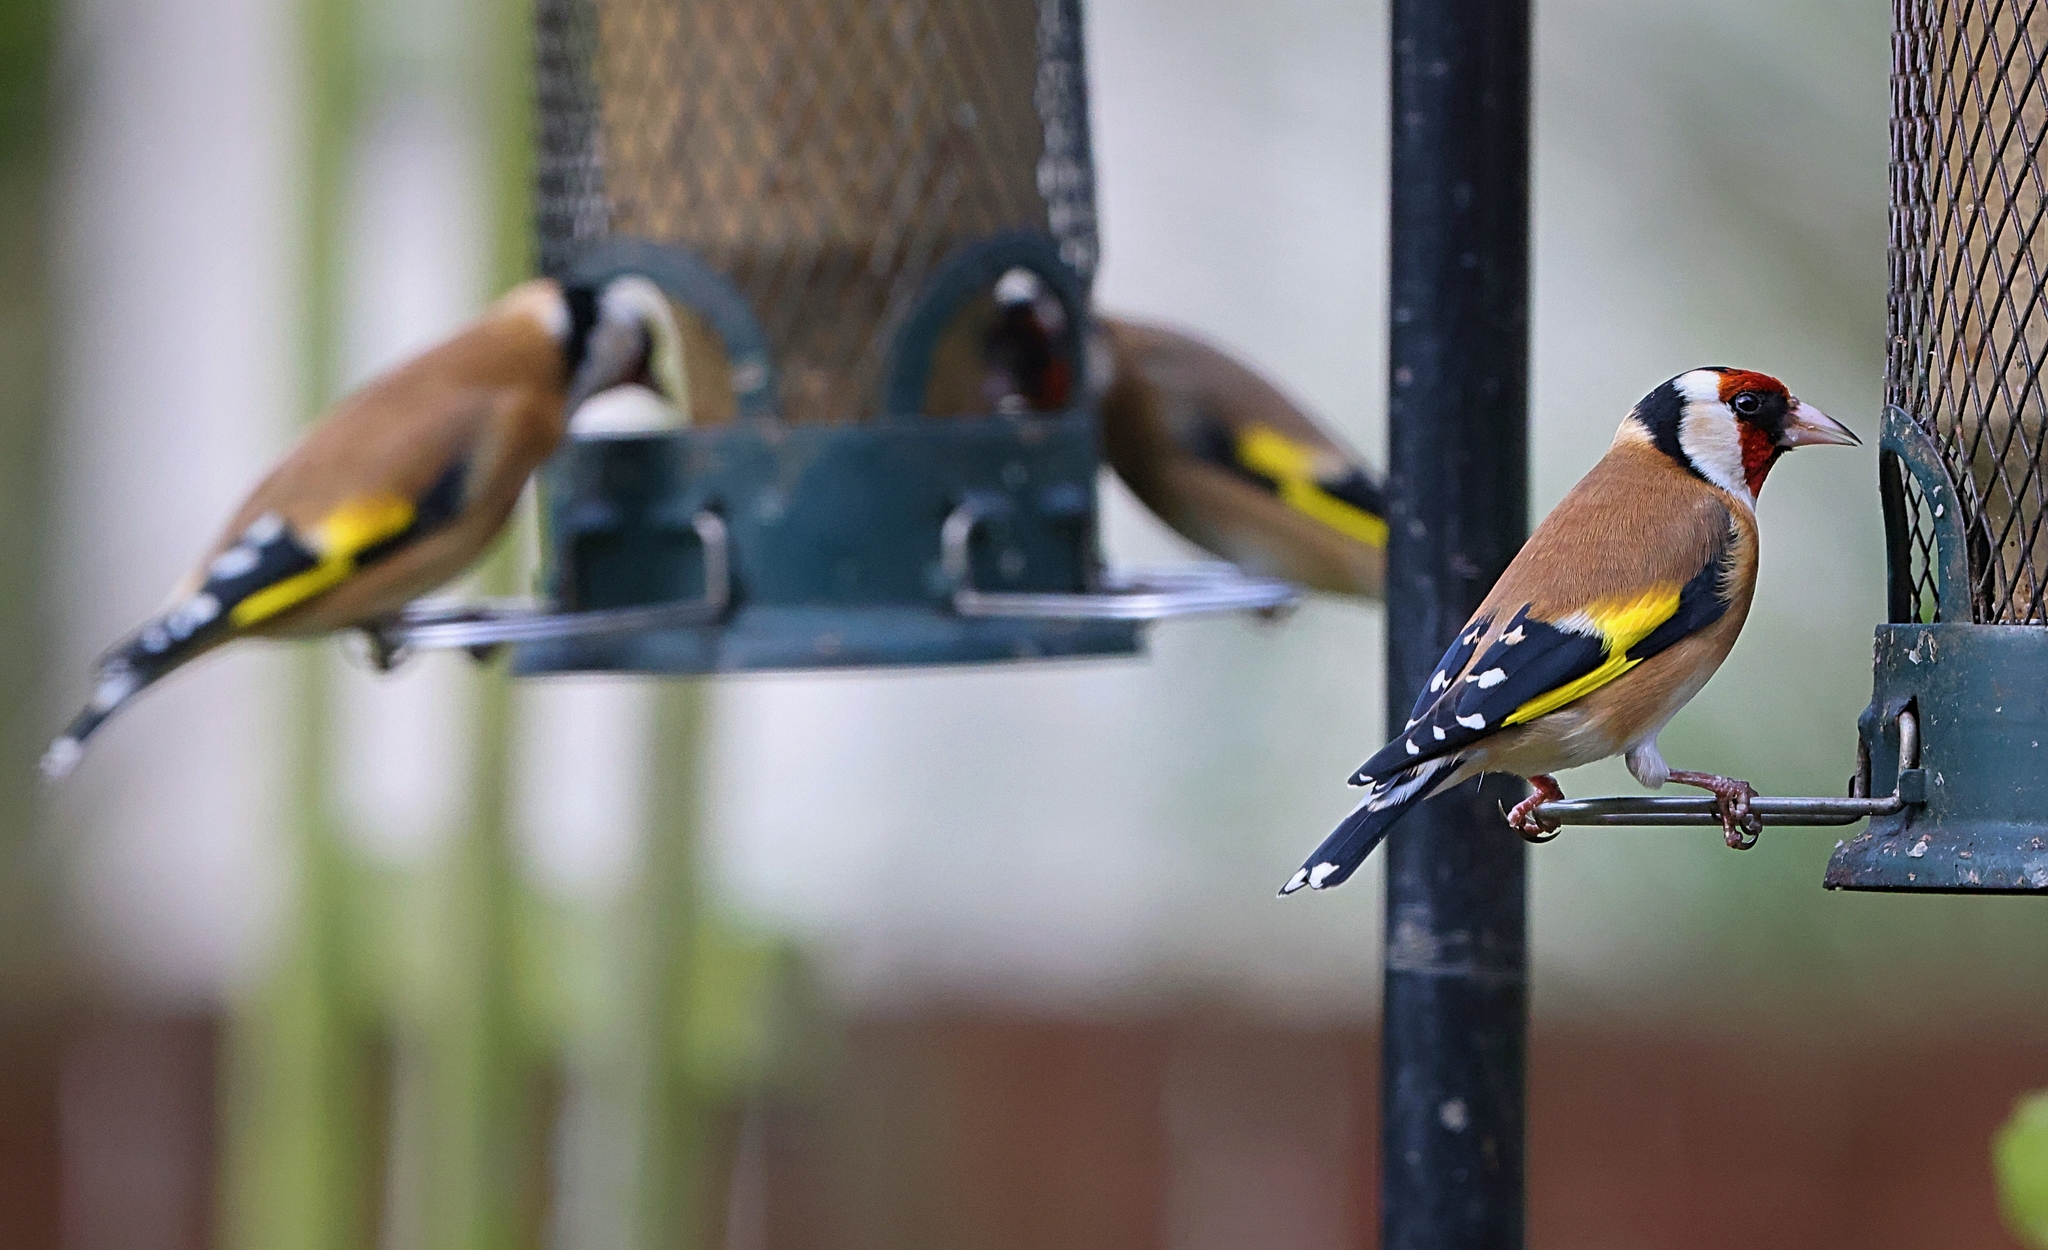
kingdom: Animalia
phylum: Chordata
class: Aves
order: Passeriformes
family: Fringillidae
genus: Carduelis
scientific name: Carduelis carduelis
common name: European goldfinch
